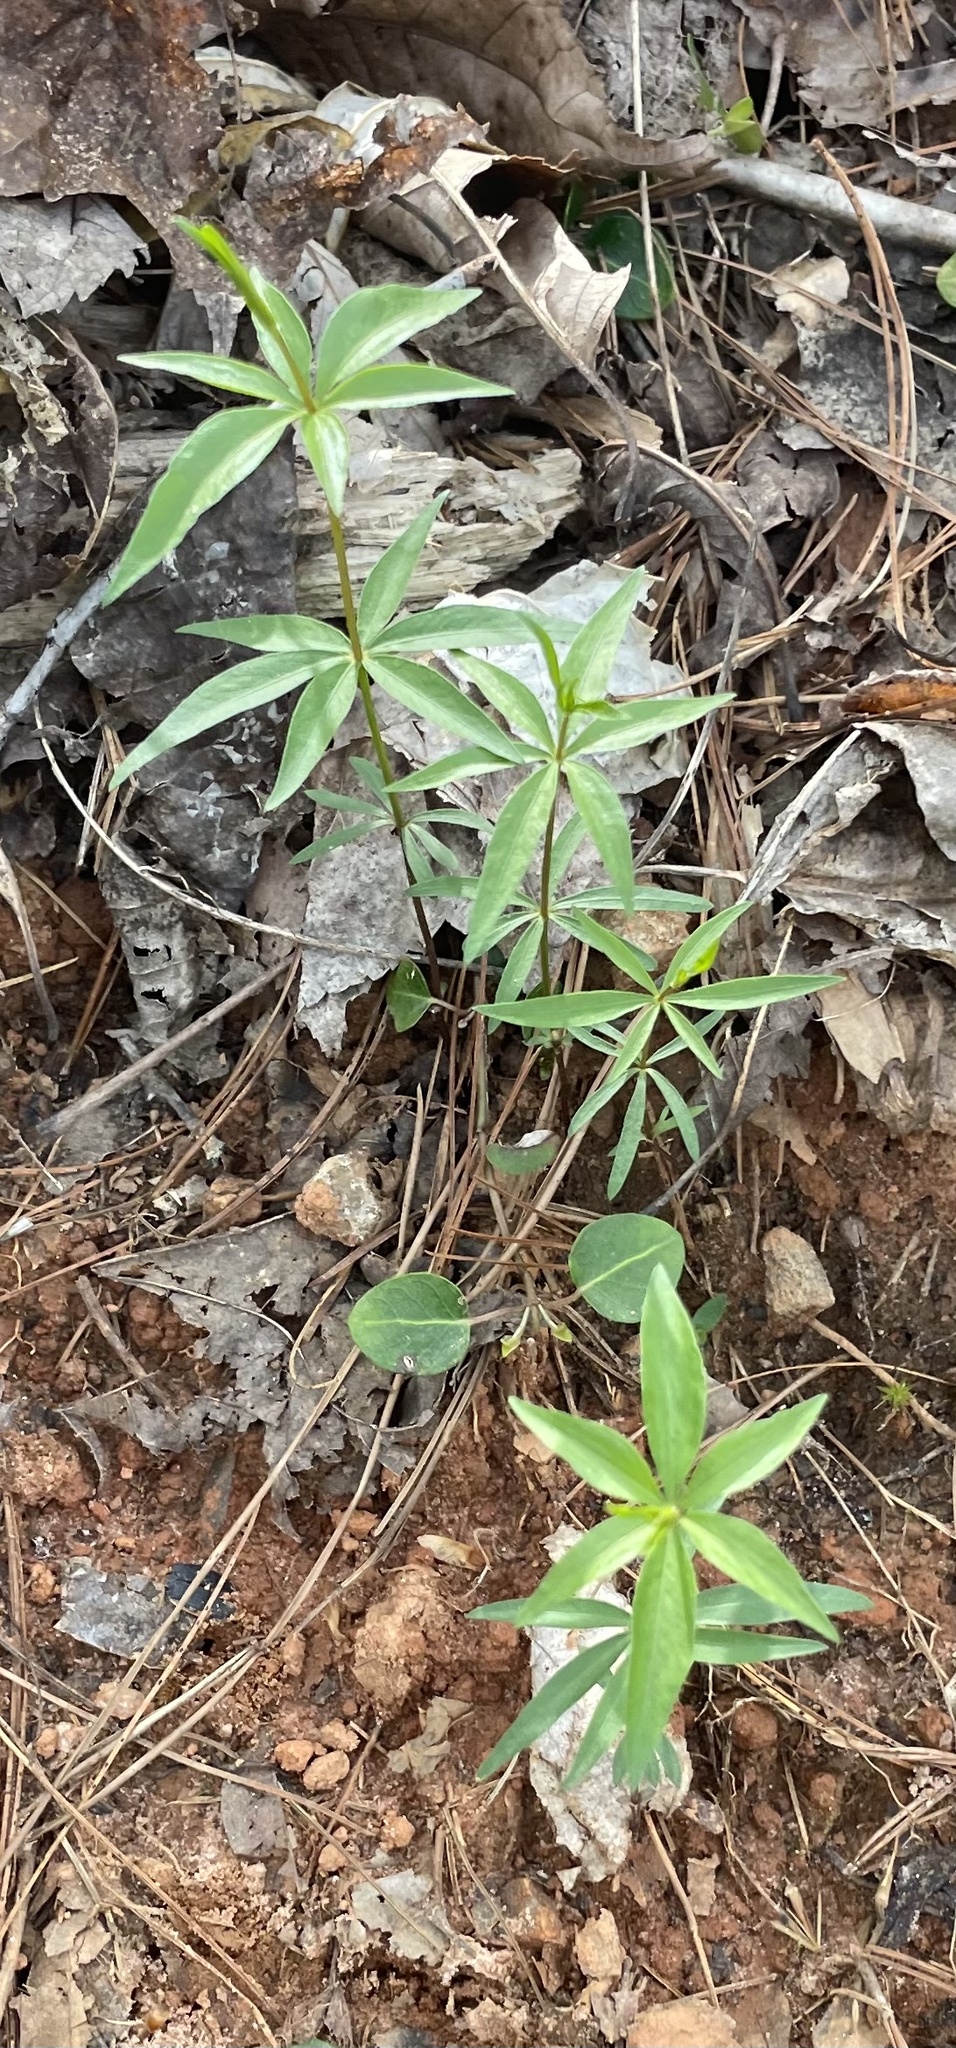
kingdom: Plantae
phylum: Tracheophyta
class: Magnoliopsida
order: Asterales
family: Asteraceae
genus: Coreopsis
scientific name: Coreopsis major
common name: Forest tickseed
